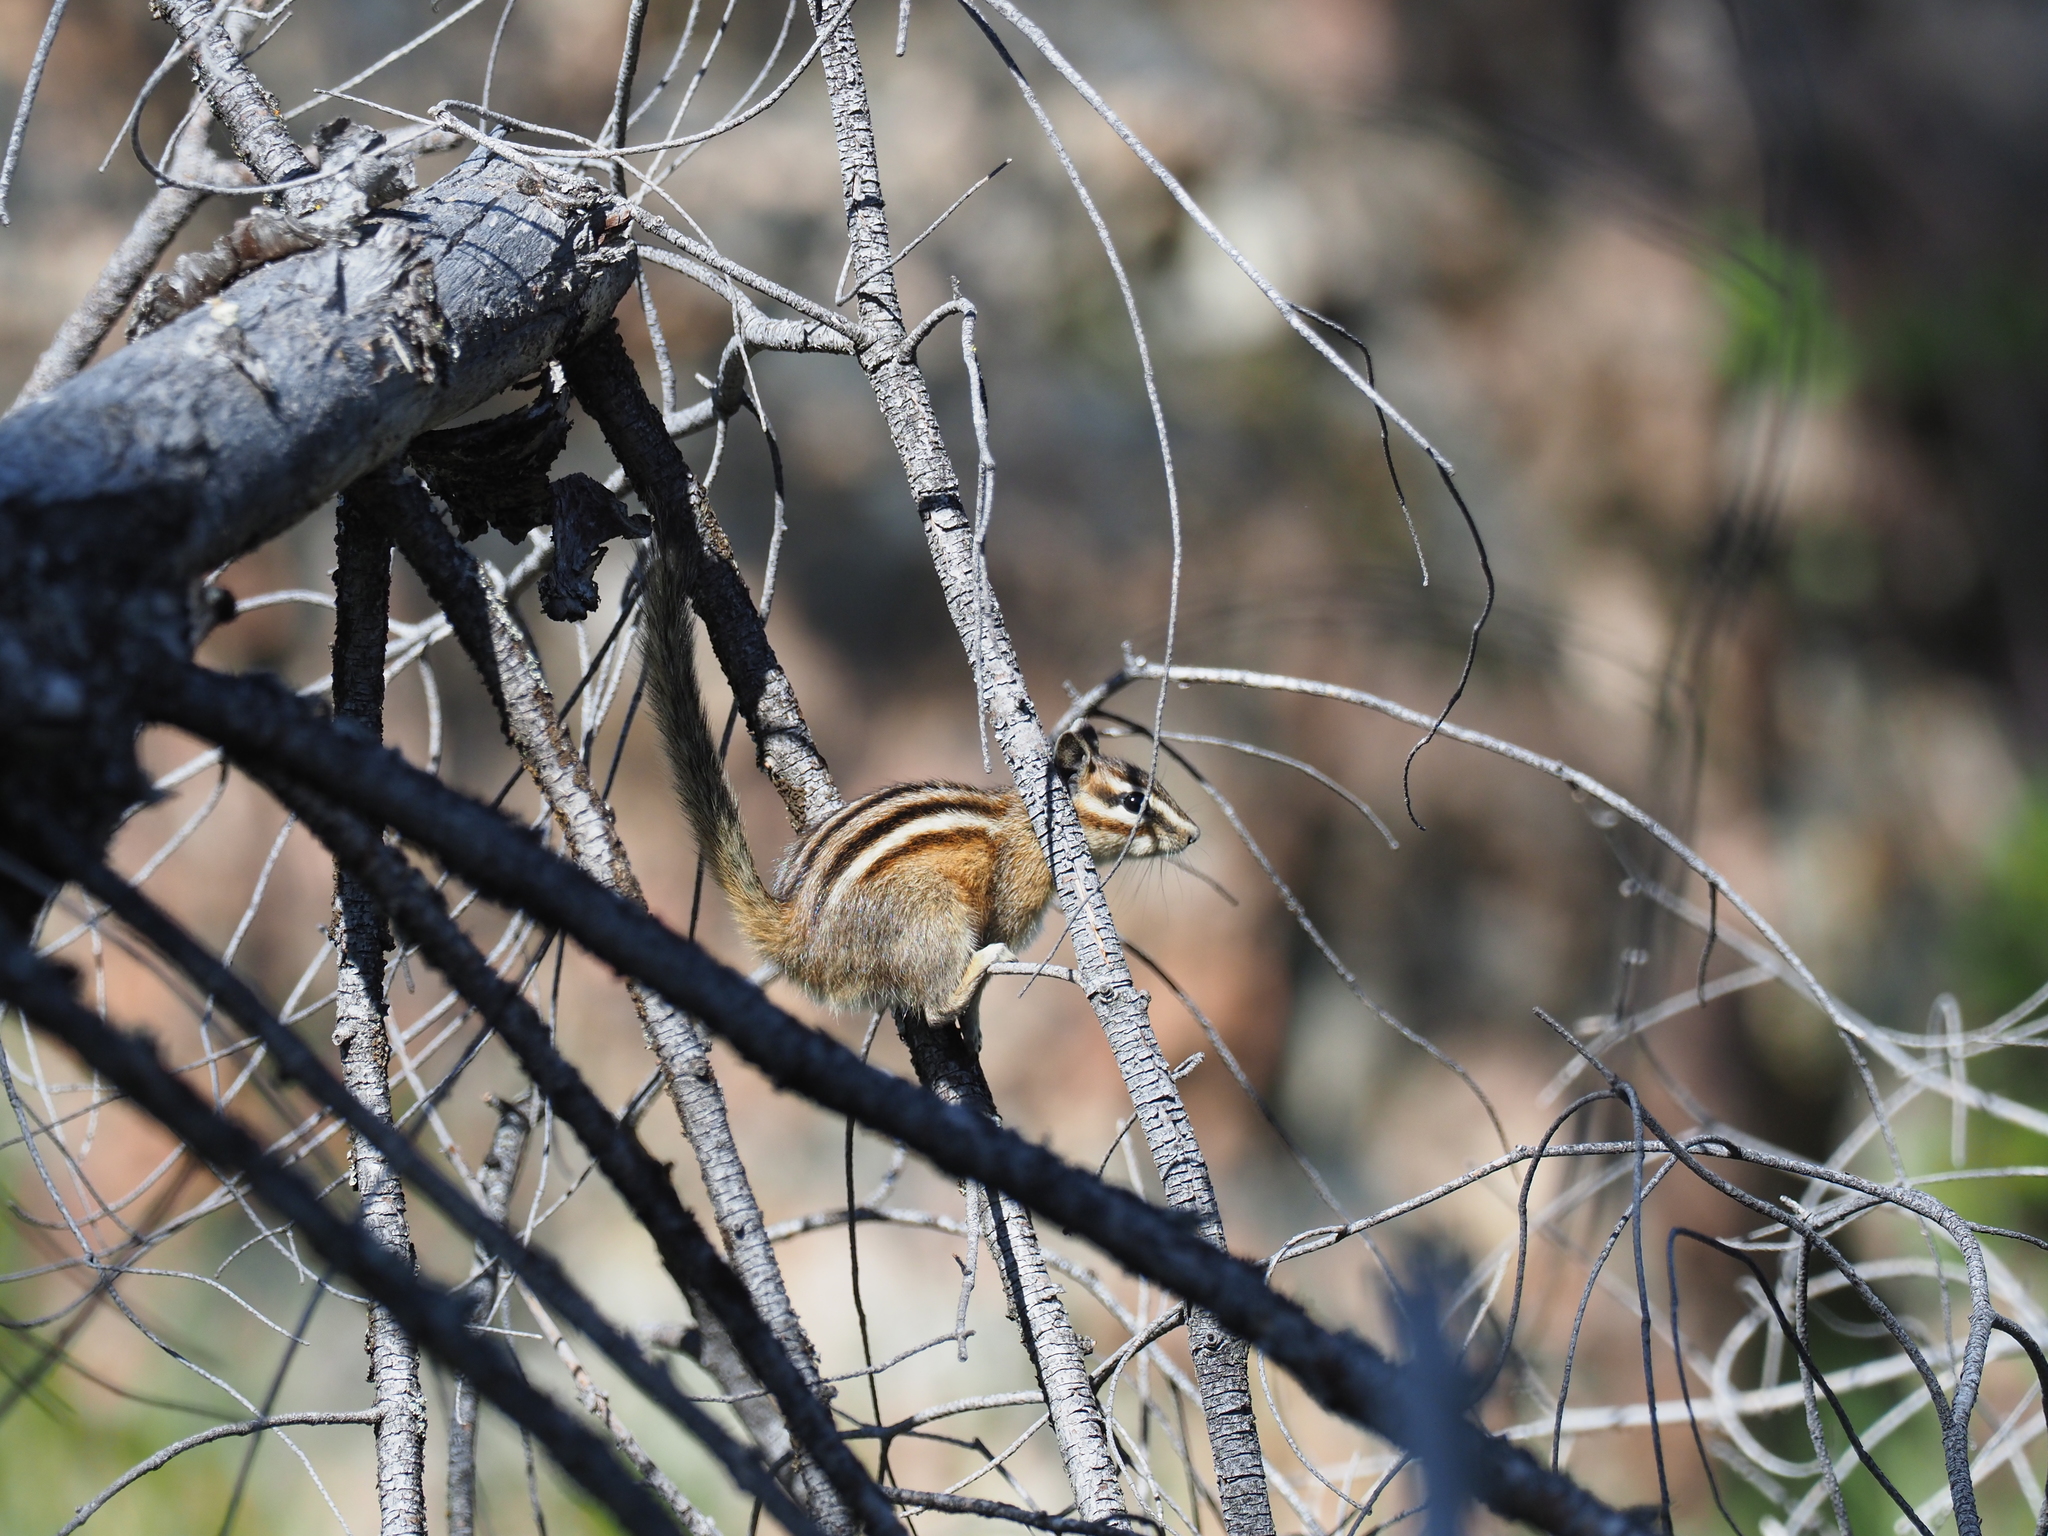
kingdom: Animalia
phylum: Chordata
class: Mammalia
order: Rodentia
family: Sciuridae
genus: Tamias
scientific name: Tamias amoenus
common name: Yellow-pine chipmunk
